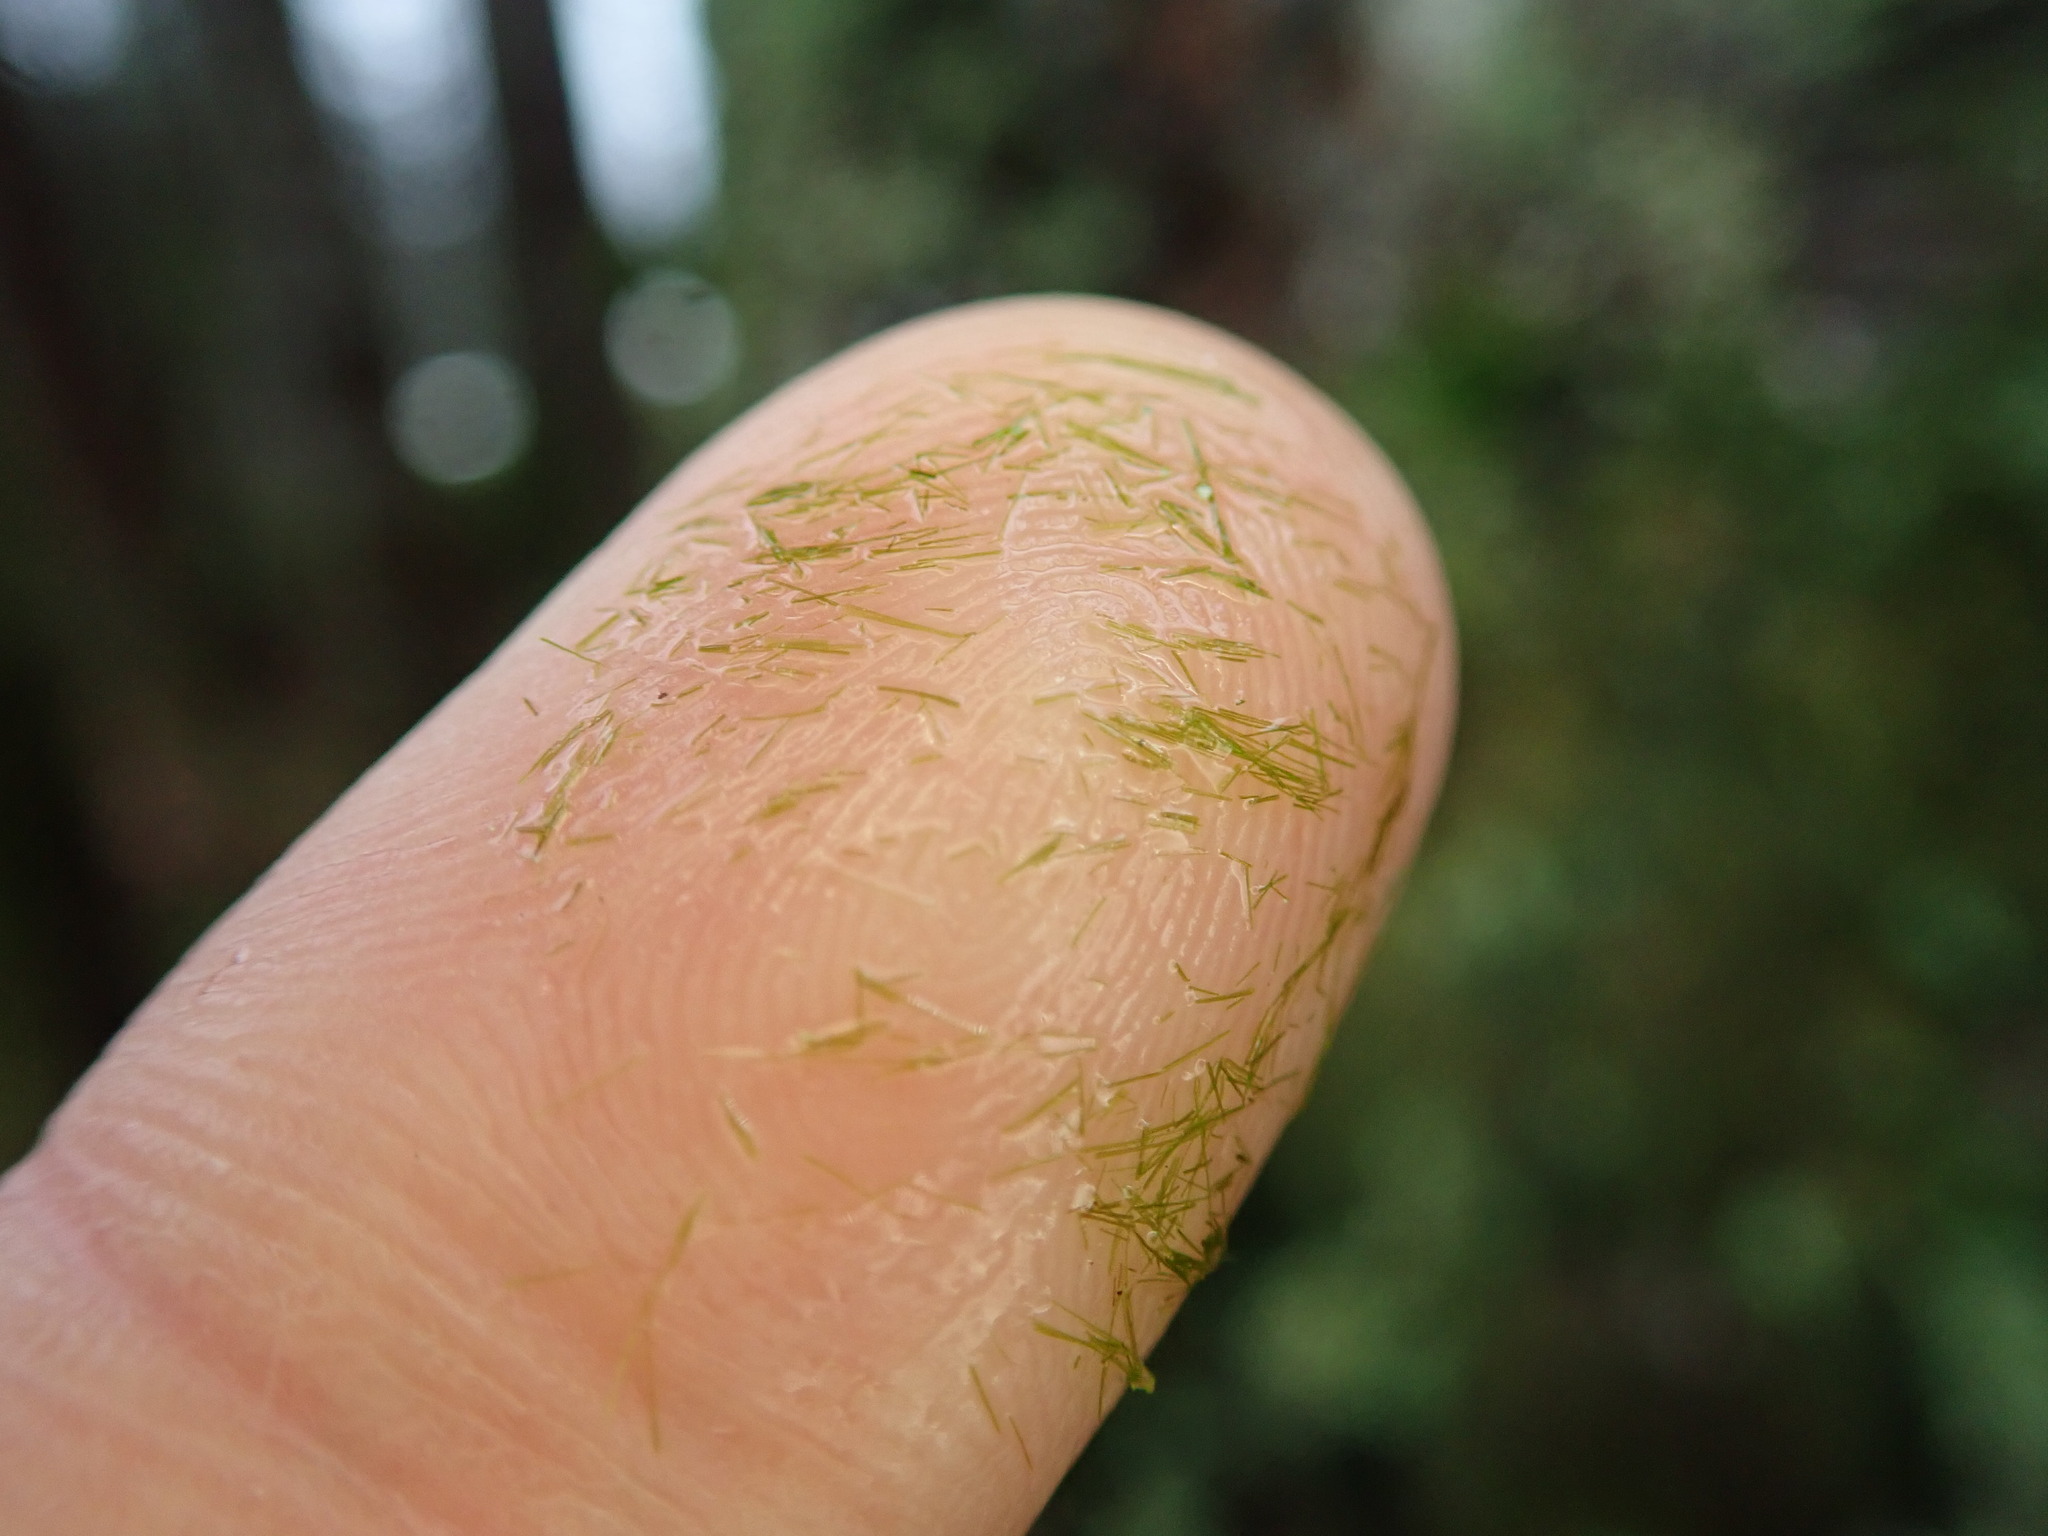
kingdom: Plantae
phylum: Bryophyta
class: Bryopsida
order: Dicranales
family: Dicranaceae
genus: Orthodicranum
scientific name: Orthodicranum tauricum
